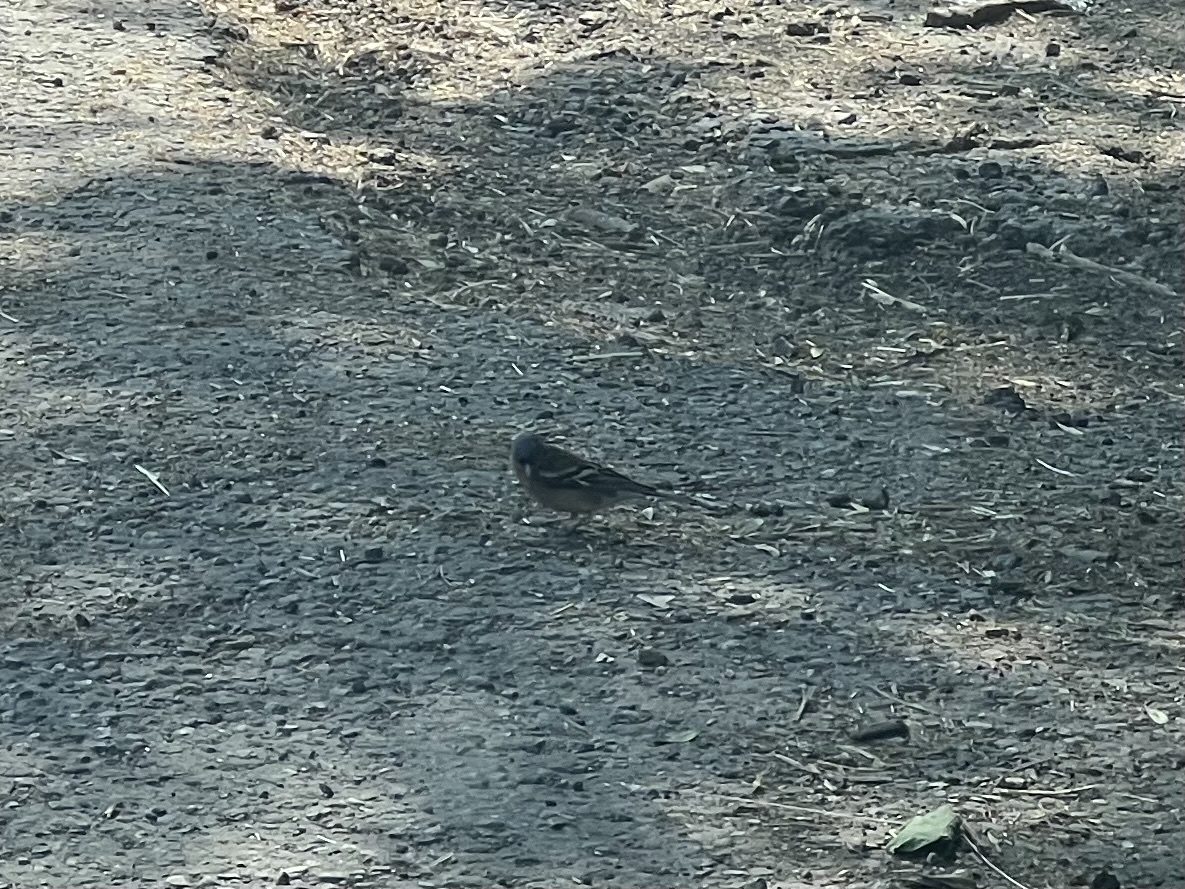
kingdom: Animalia
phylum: Chordata
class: Aves
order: Passeriformes
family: Fringillidae
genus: Fringilla
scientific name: Fringilla coelebs
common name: Common chaffinch
